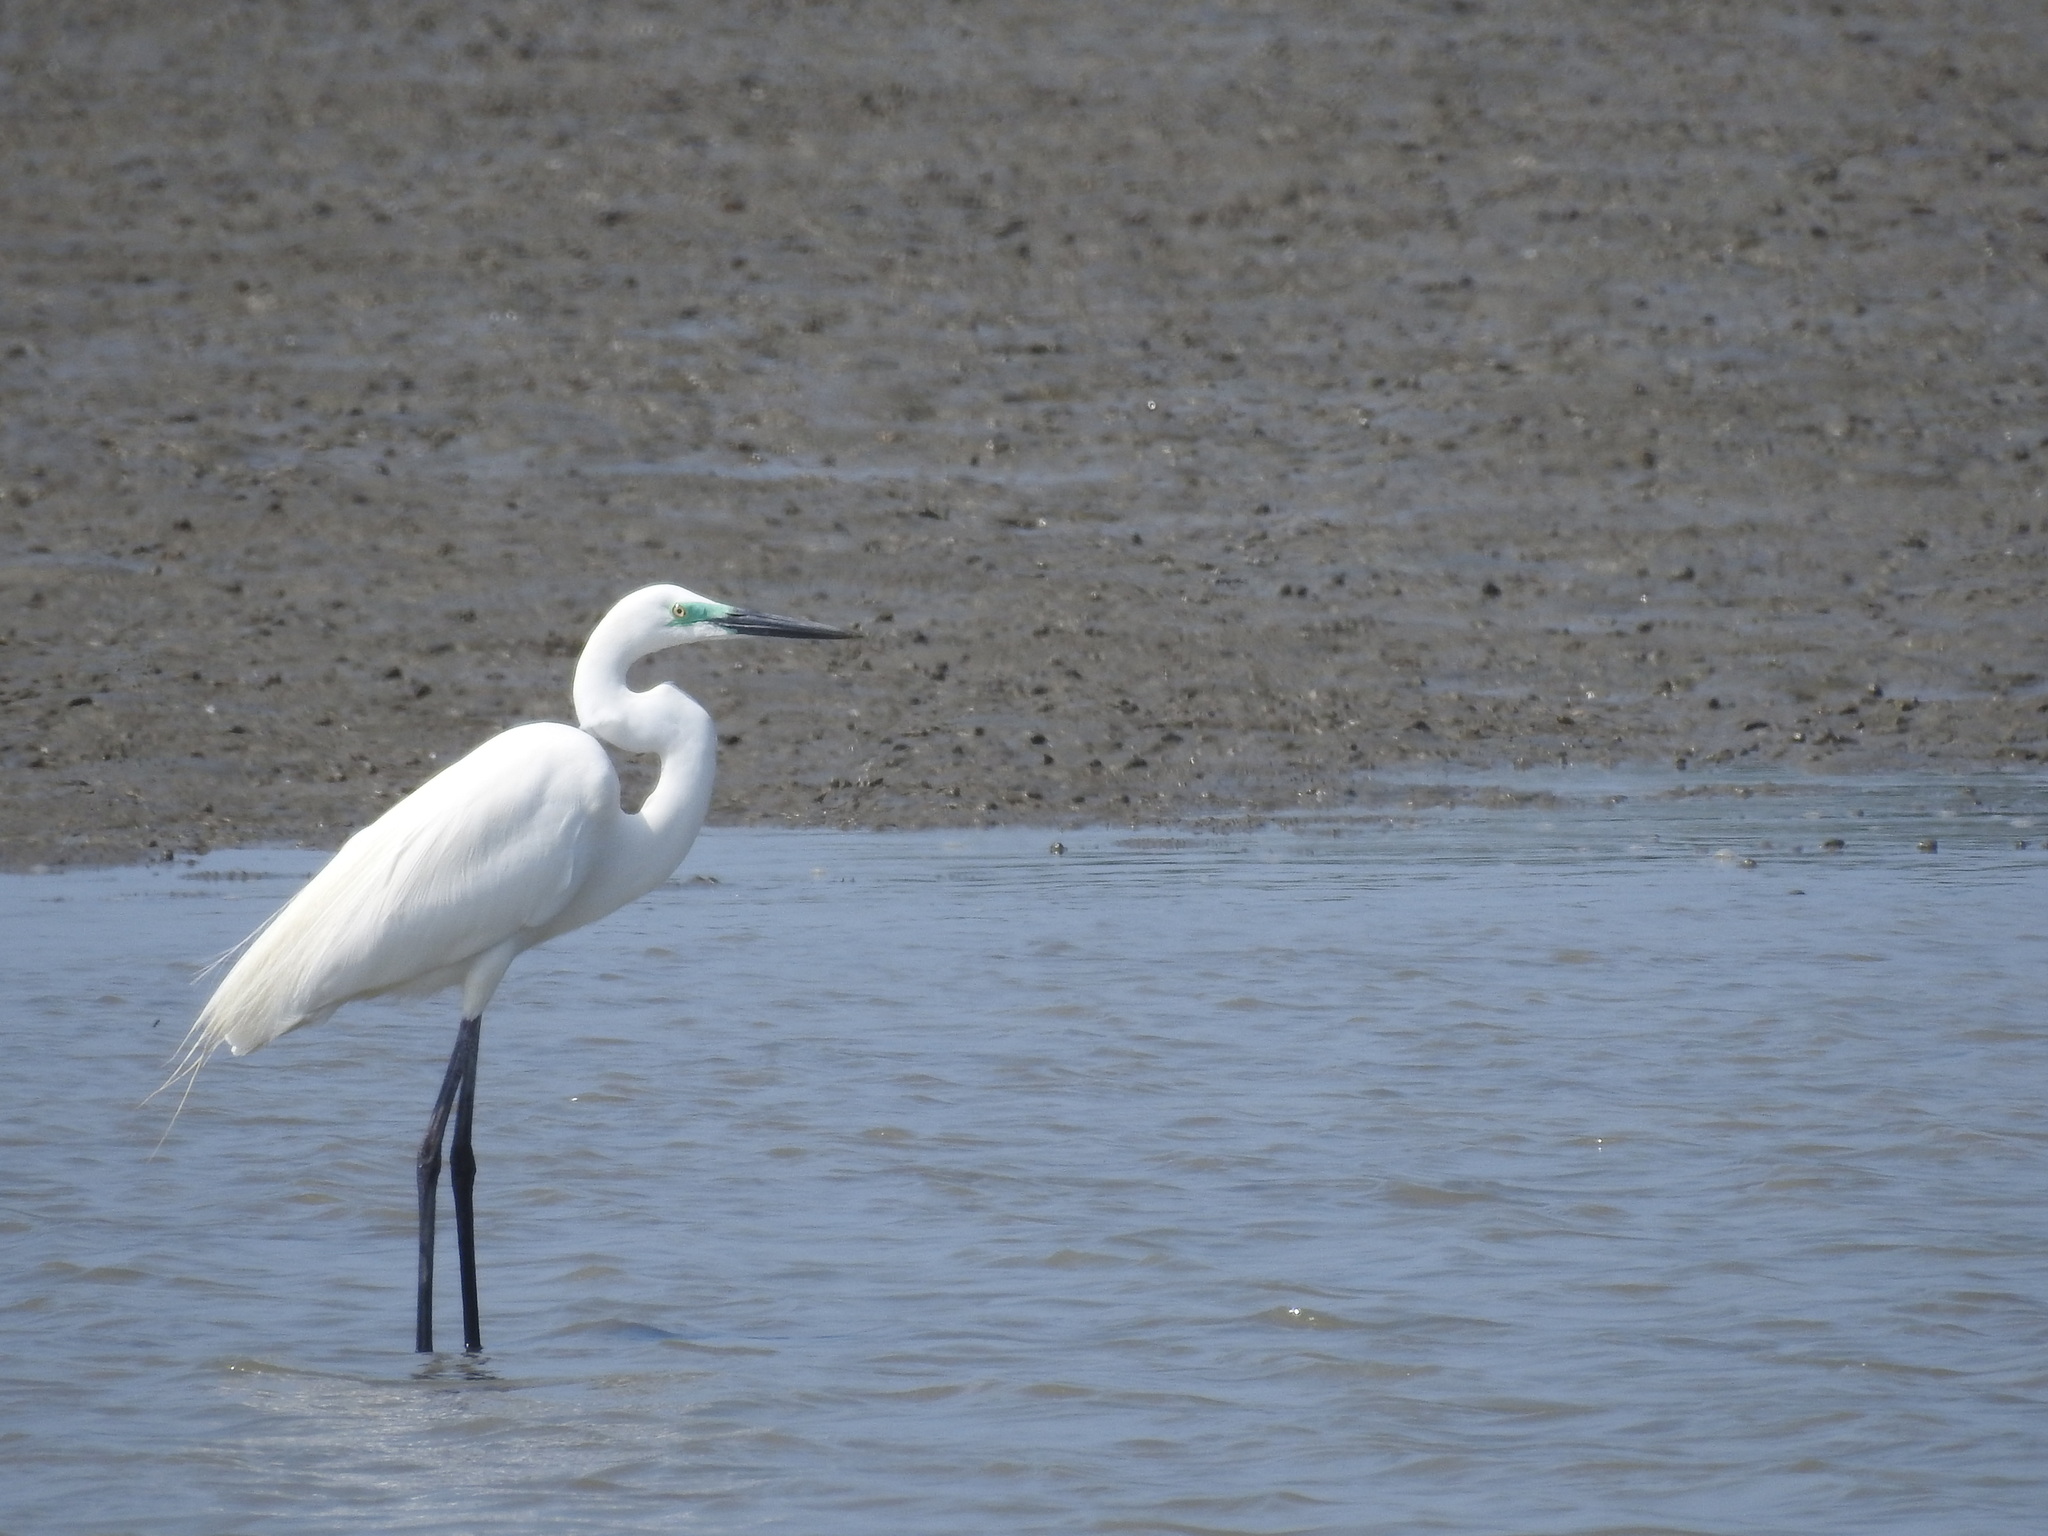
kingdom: Animalia
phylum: Chordata
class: Aves
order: Pelecaniformes
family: Ardeidae
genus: Ardea
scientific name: Ardea alba
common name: Great egret
